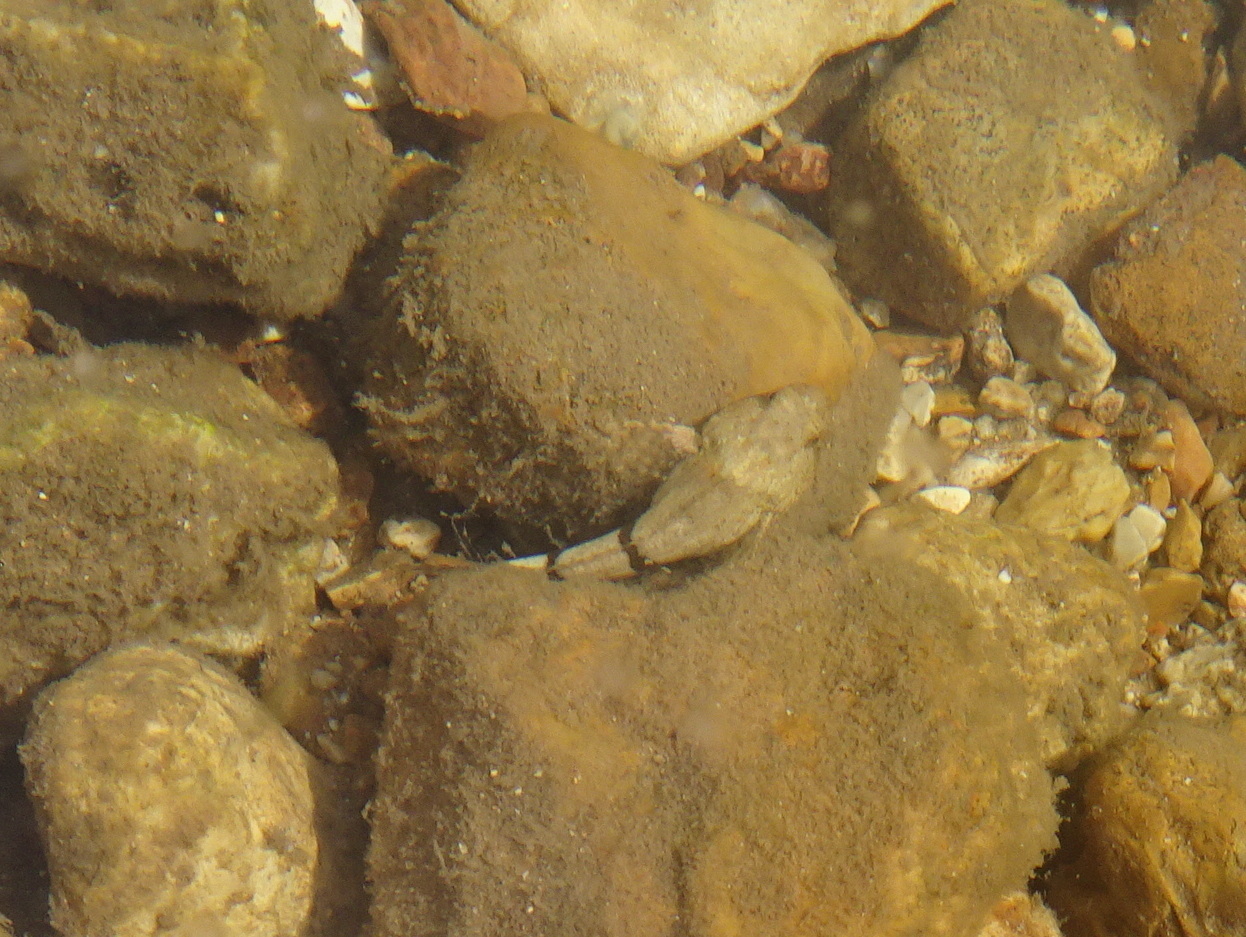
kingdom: Animalia
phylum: Chordata
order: Scorpaeniformes
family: Cottidae
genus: Cottus
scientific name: Cottus carolinae
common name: Banded sculpin
